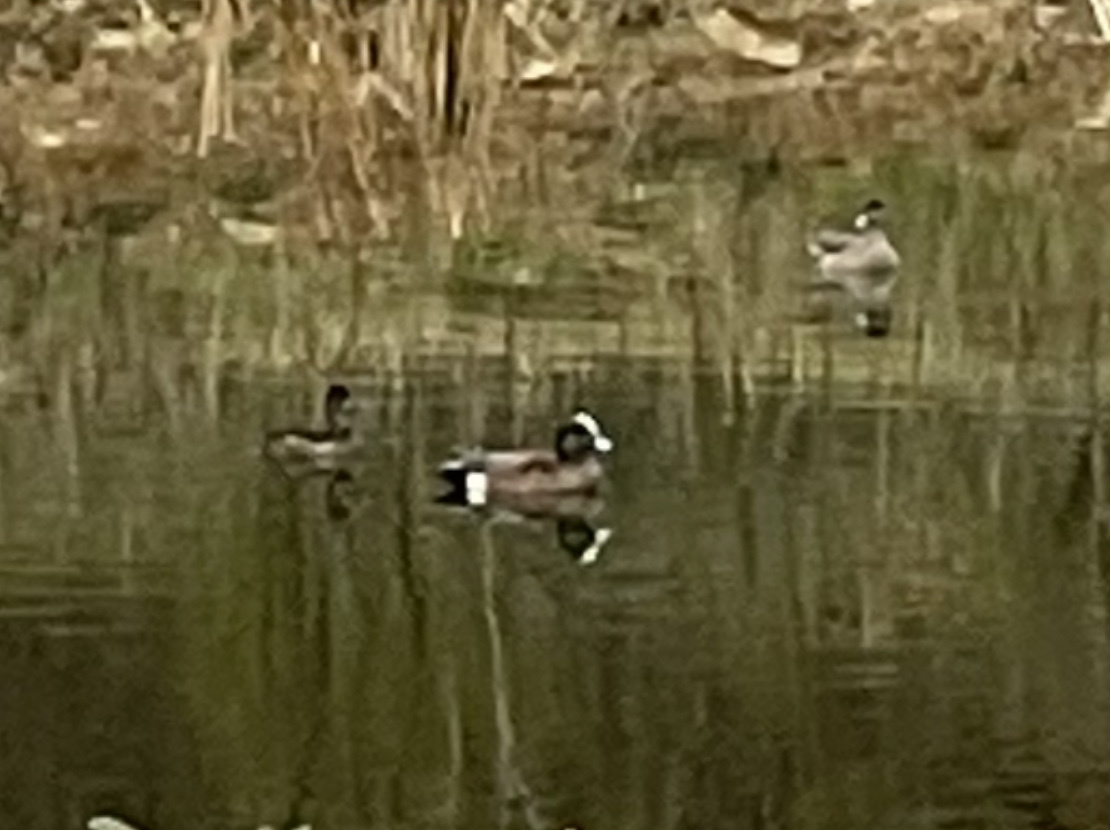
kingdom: Animalia
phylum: Chordata
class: Aves
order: Anseriformes
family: Anatidae
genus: Mareca
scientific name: Mareca americana
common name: American wigeon
